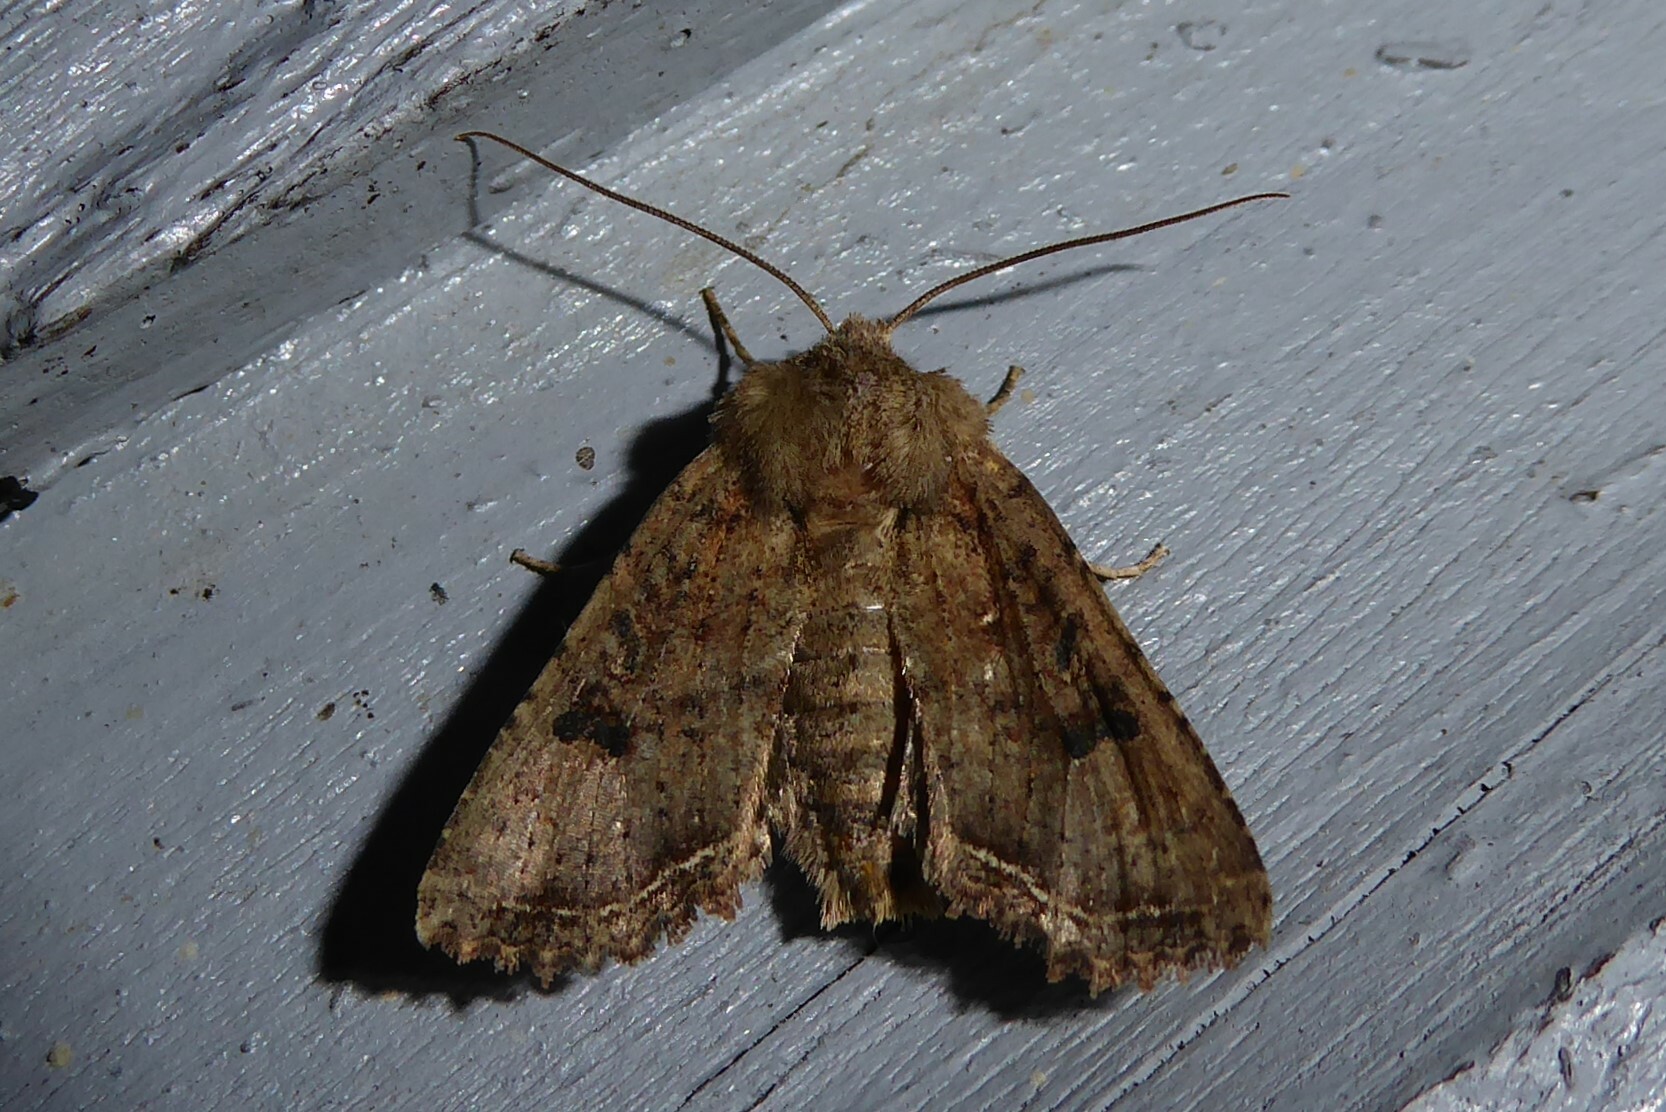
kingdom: Animalia
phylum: Arthropoda
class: Insecta
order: Lepidoptera
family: Noctuidae
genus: Meterana
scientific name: Meterana inchoata
